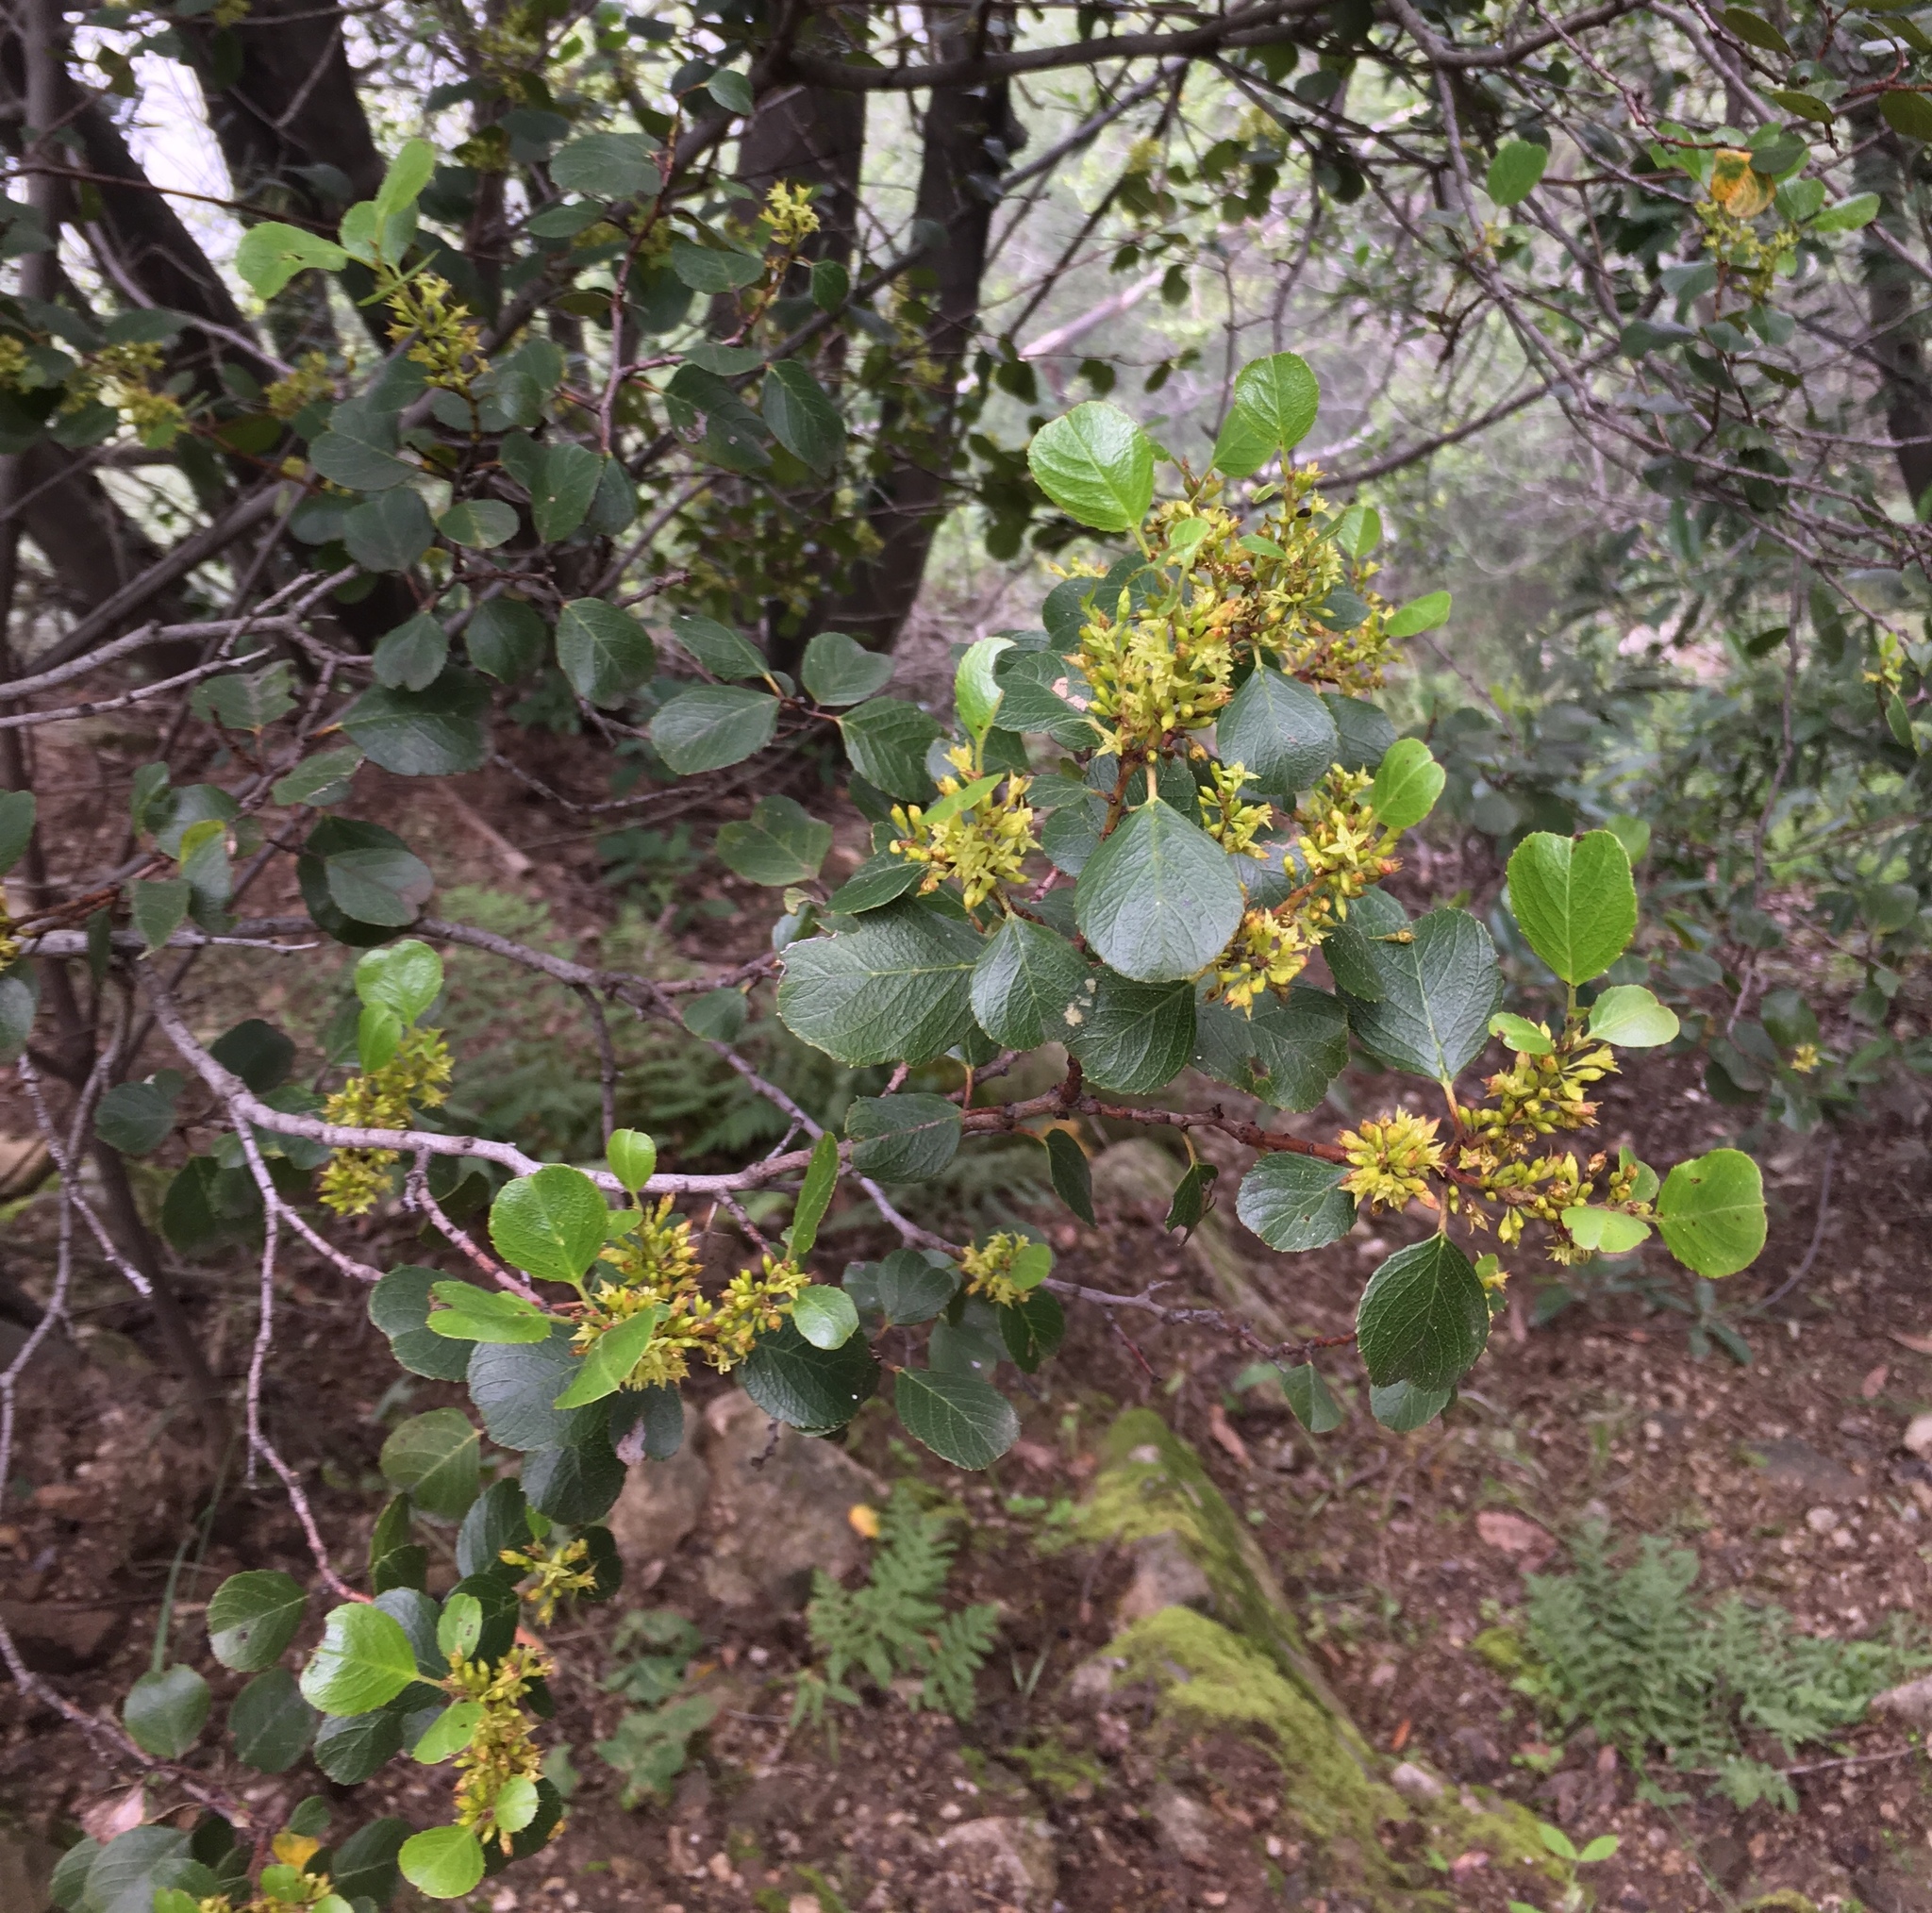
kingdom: Plantae
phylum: Tracheophyta
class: Magnoliopsida
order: Rosales
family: Rhamnaceae
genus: Endotropis
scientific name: Endotropis crocea
